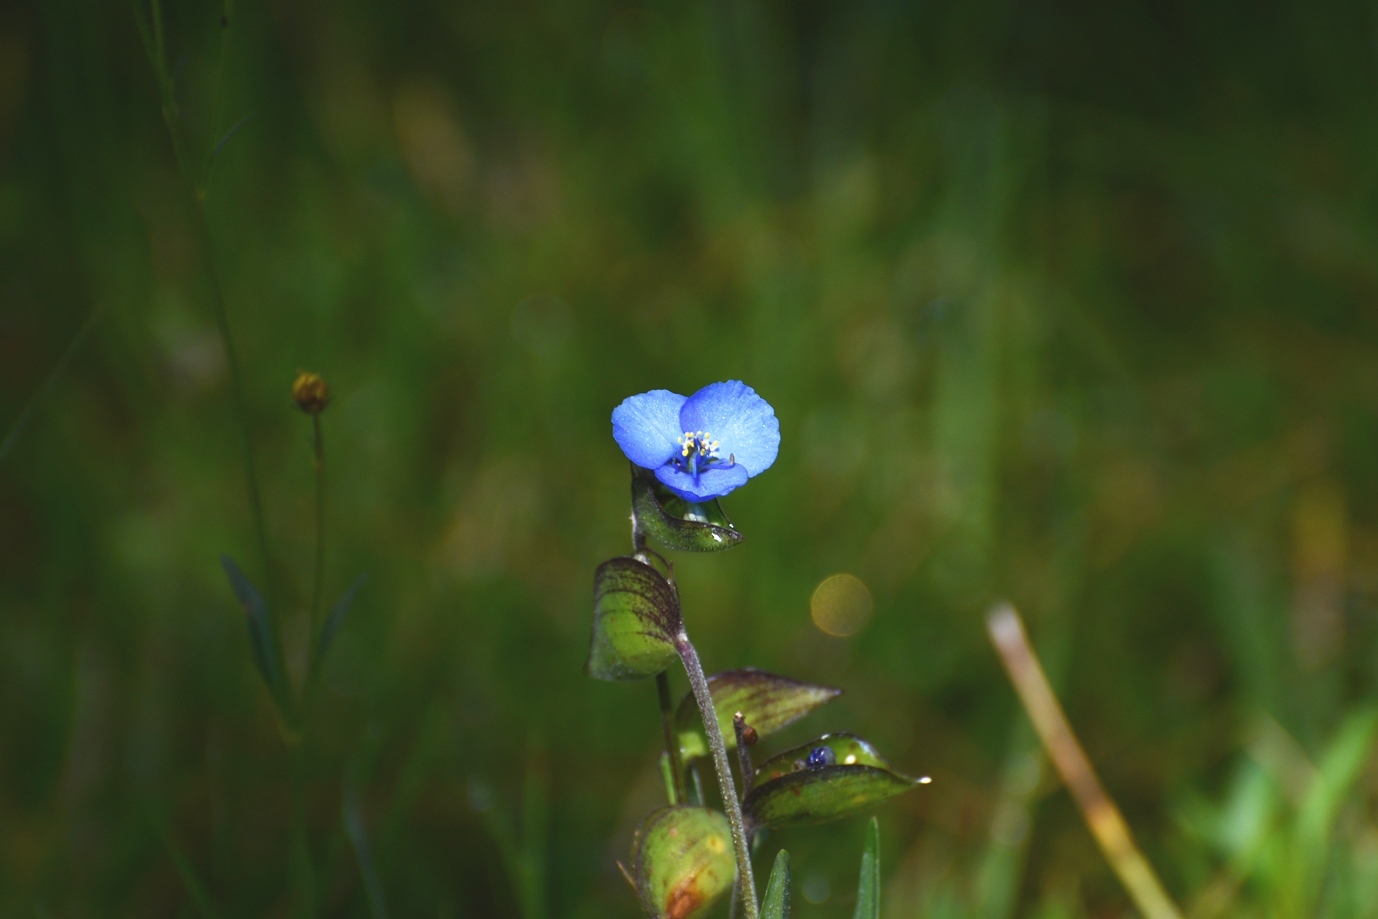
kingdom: Plantae
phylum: Tracheophyta
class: Liliopsida
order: Commelinales
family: Commelinaceae
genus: Commelina
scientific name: Commelina tuberosa
